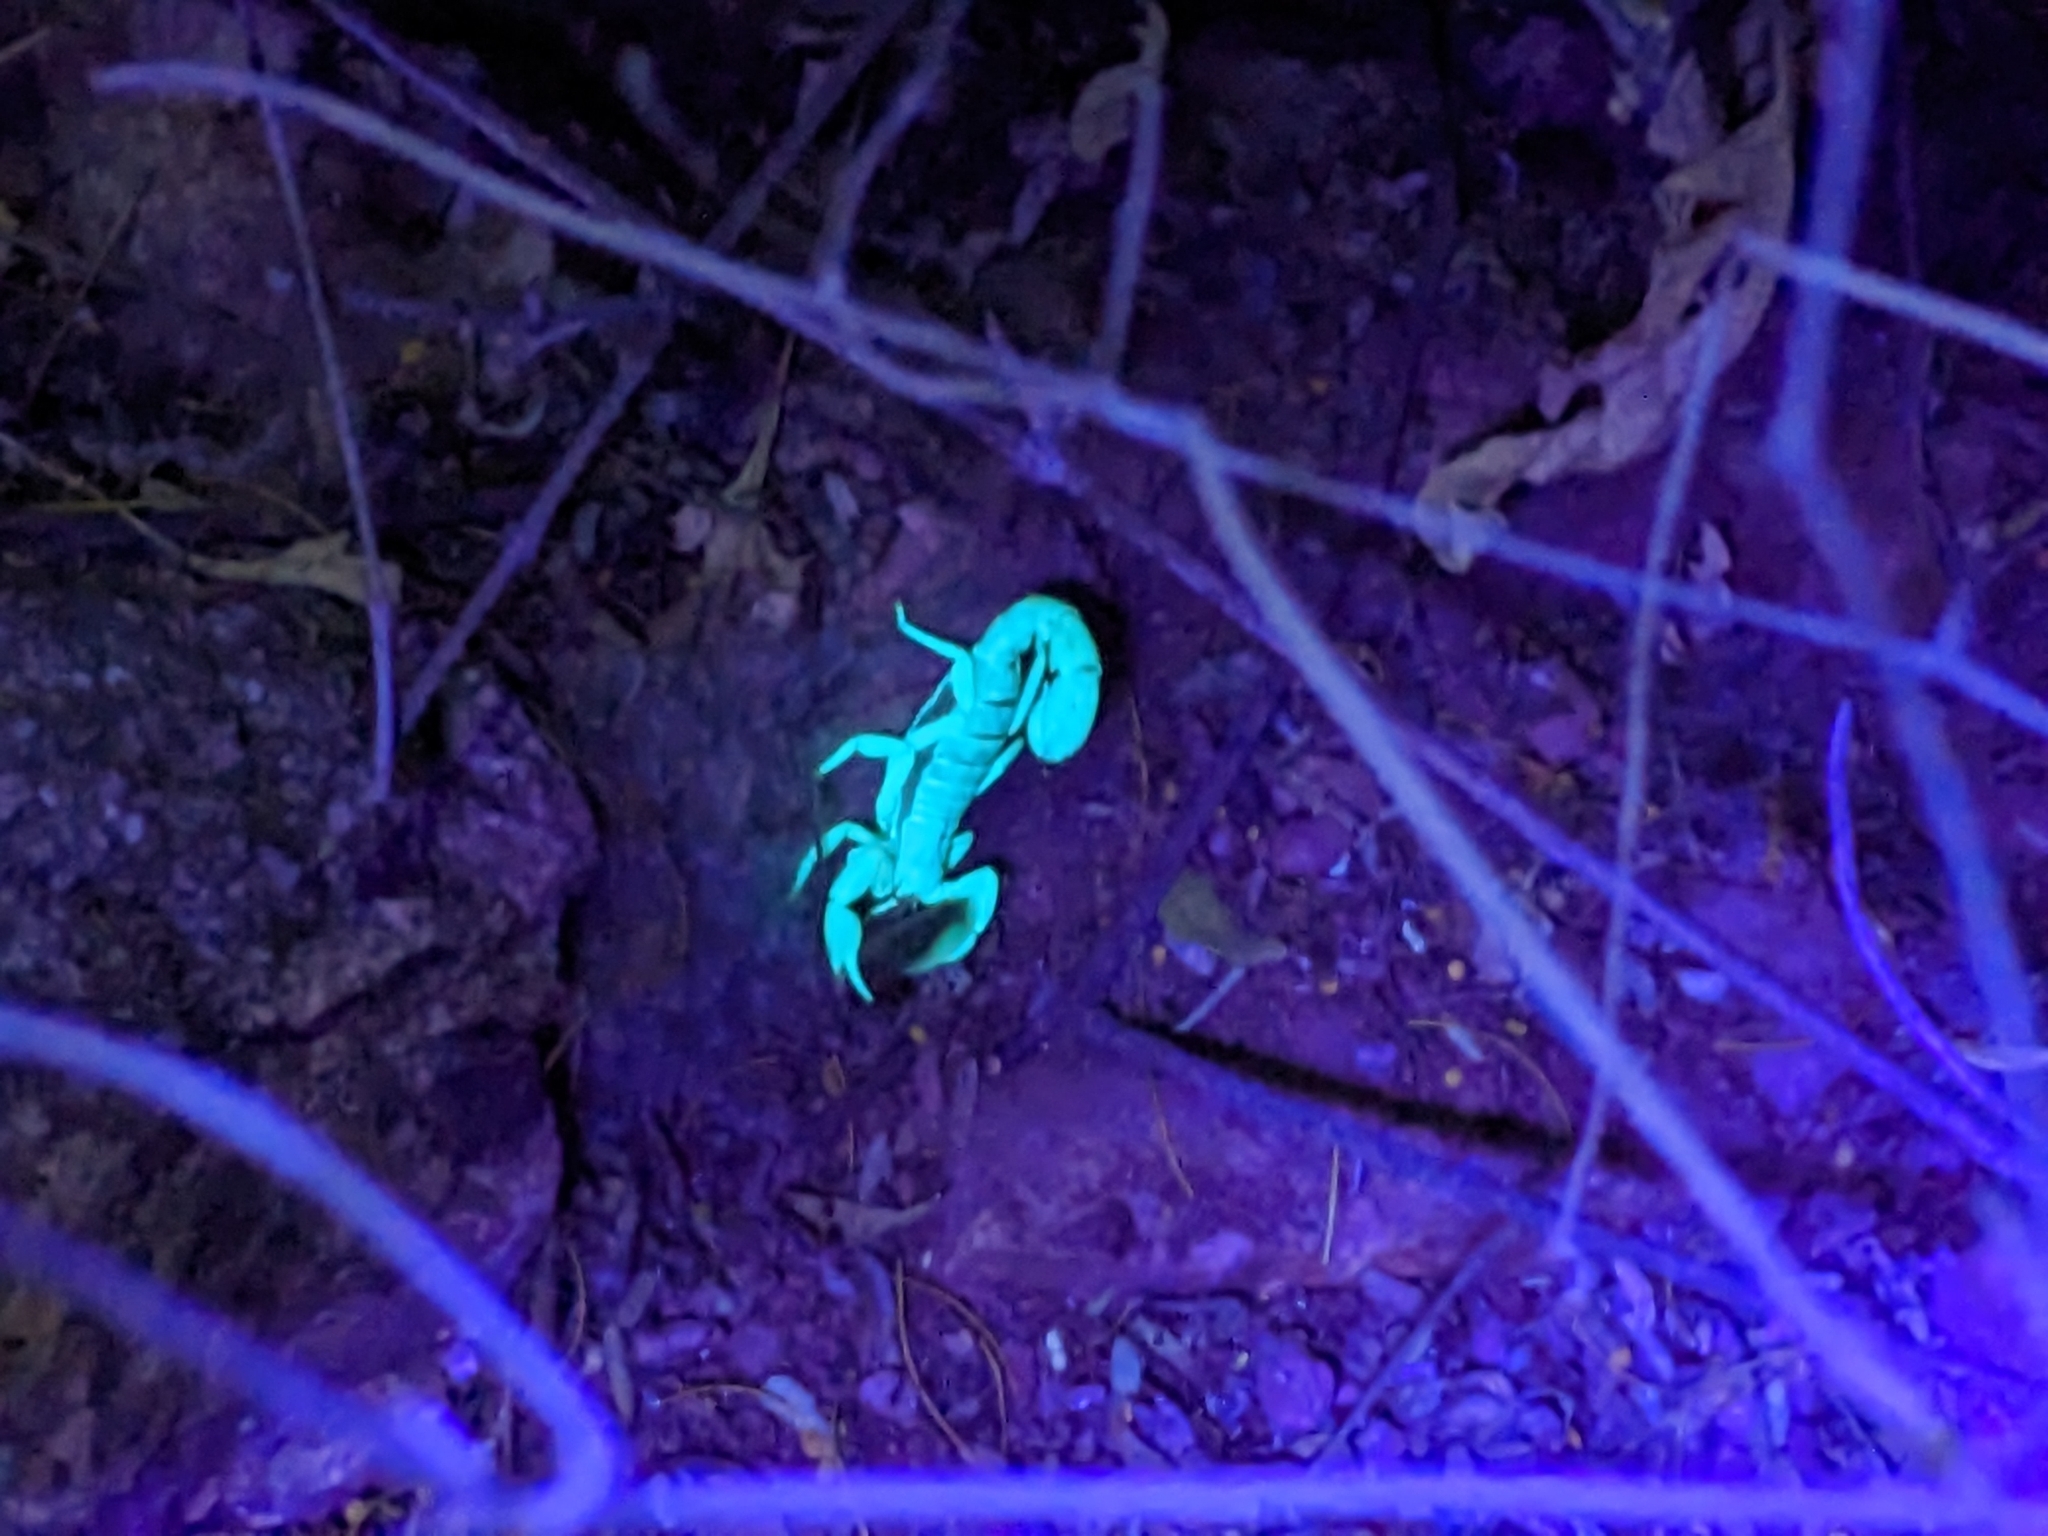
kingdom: Animalia
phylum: Arthropoda
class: Arachnida
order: Scorpiones
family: Vaejovidae
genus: Paravaejovis
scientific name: Paravaejovis spinigerus
